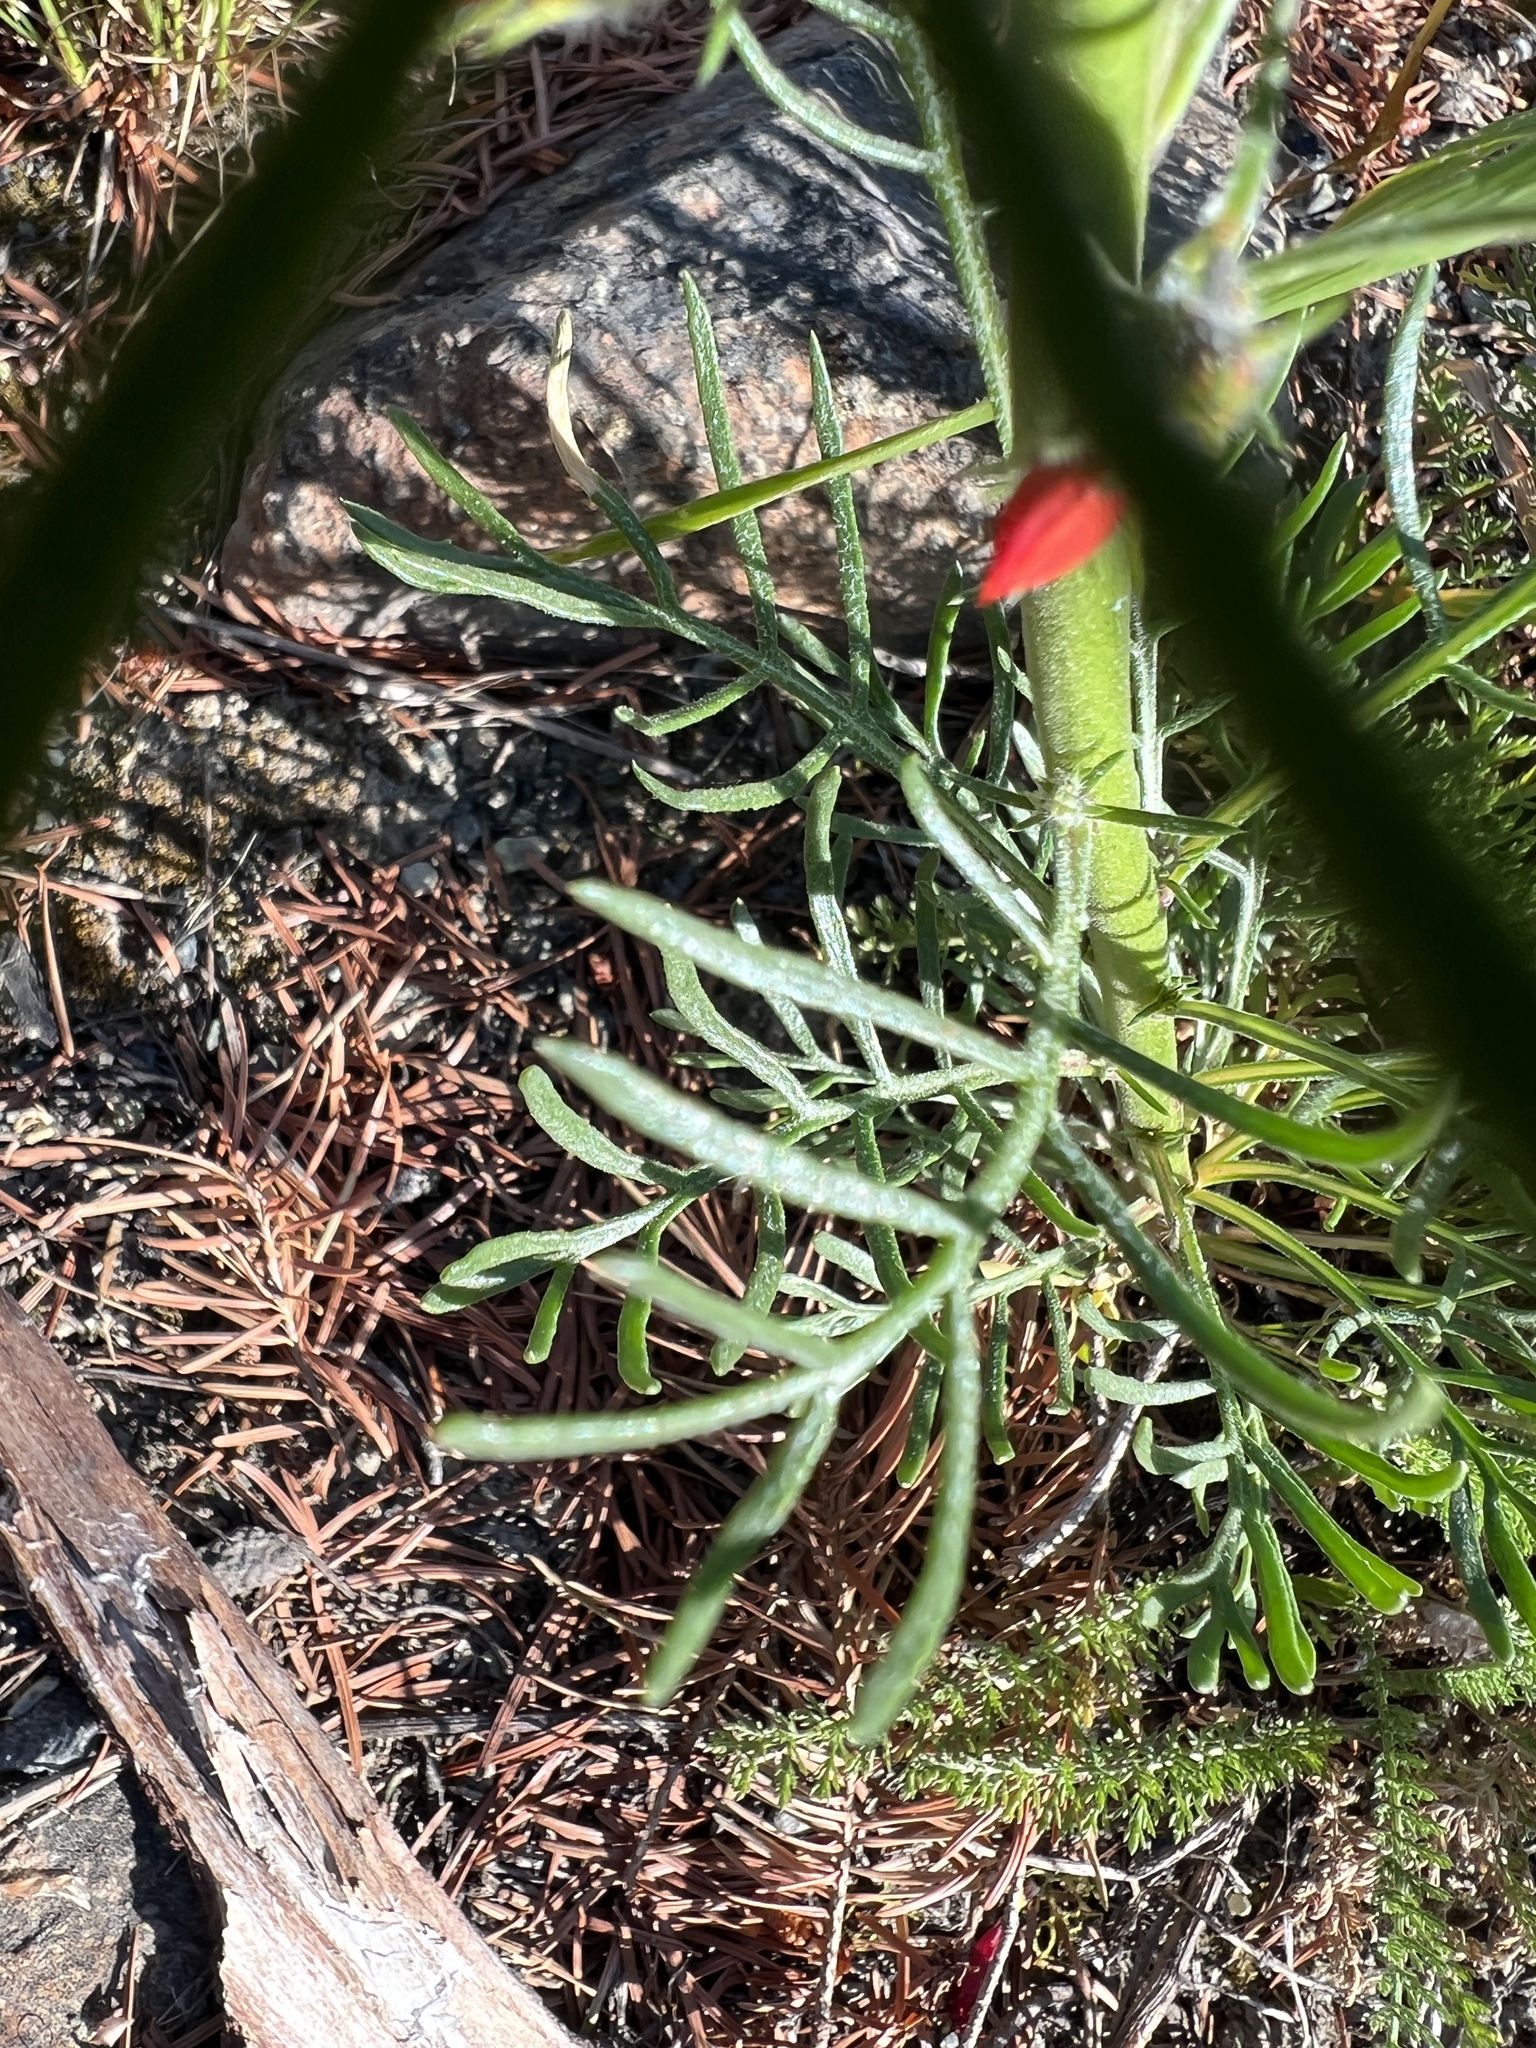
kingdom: Plantae
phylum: Tracheophyta
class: Magnoliopsida
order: Ericales
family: Polemoniaceae
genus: Ipomopsis
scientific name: Ipomopsis aggregata
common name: Scarlet gilia
